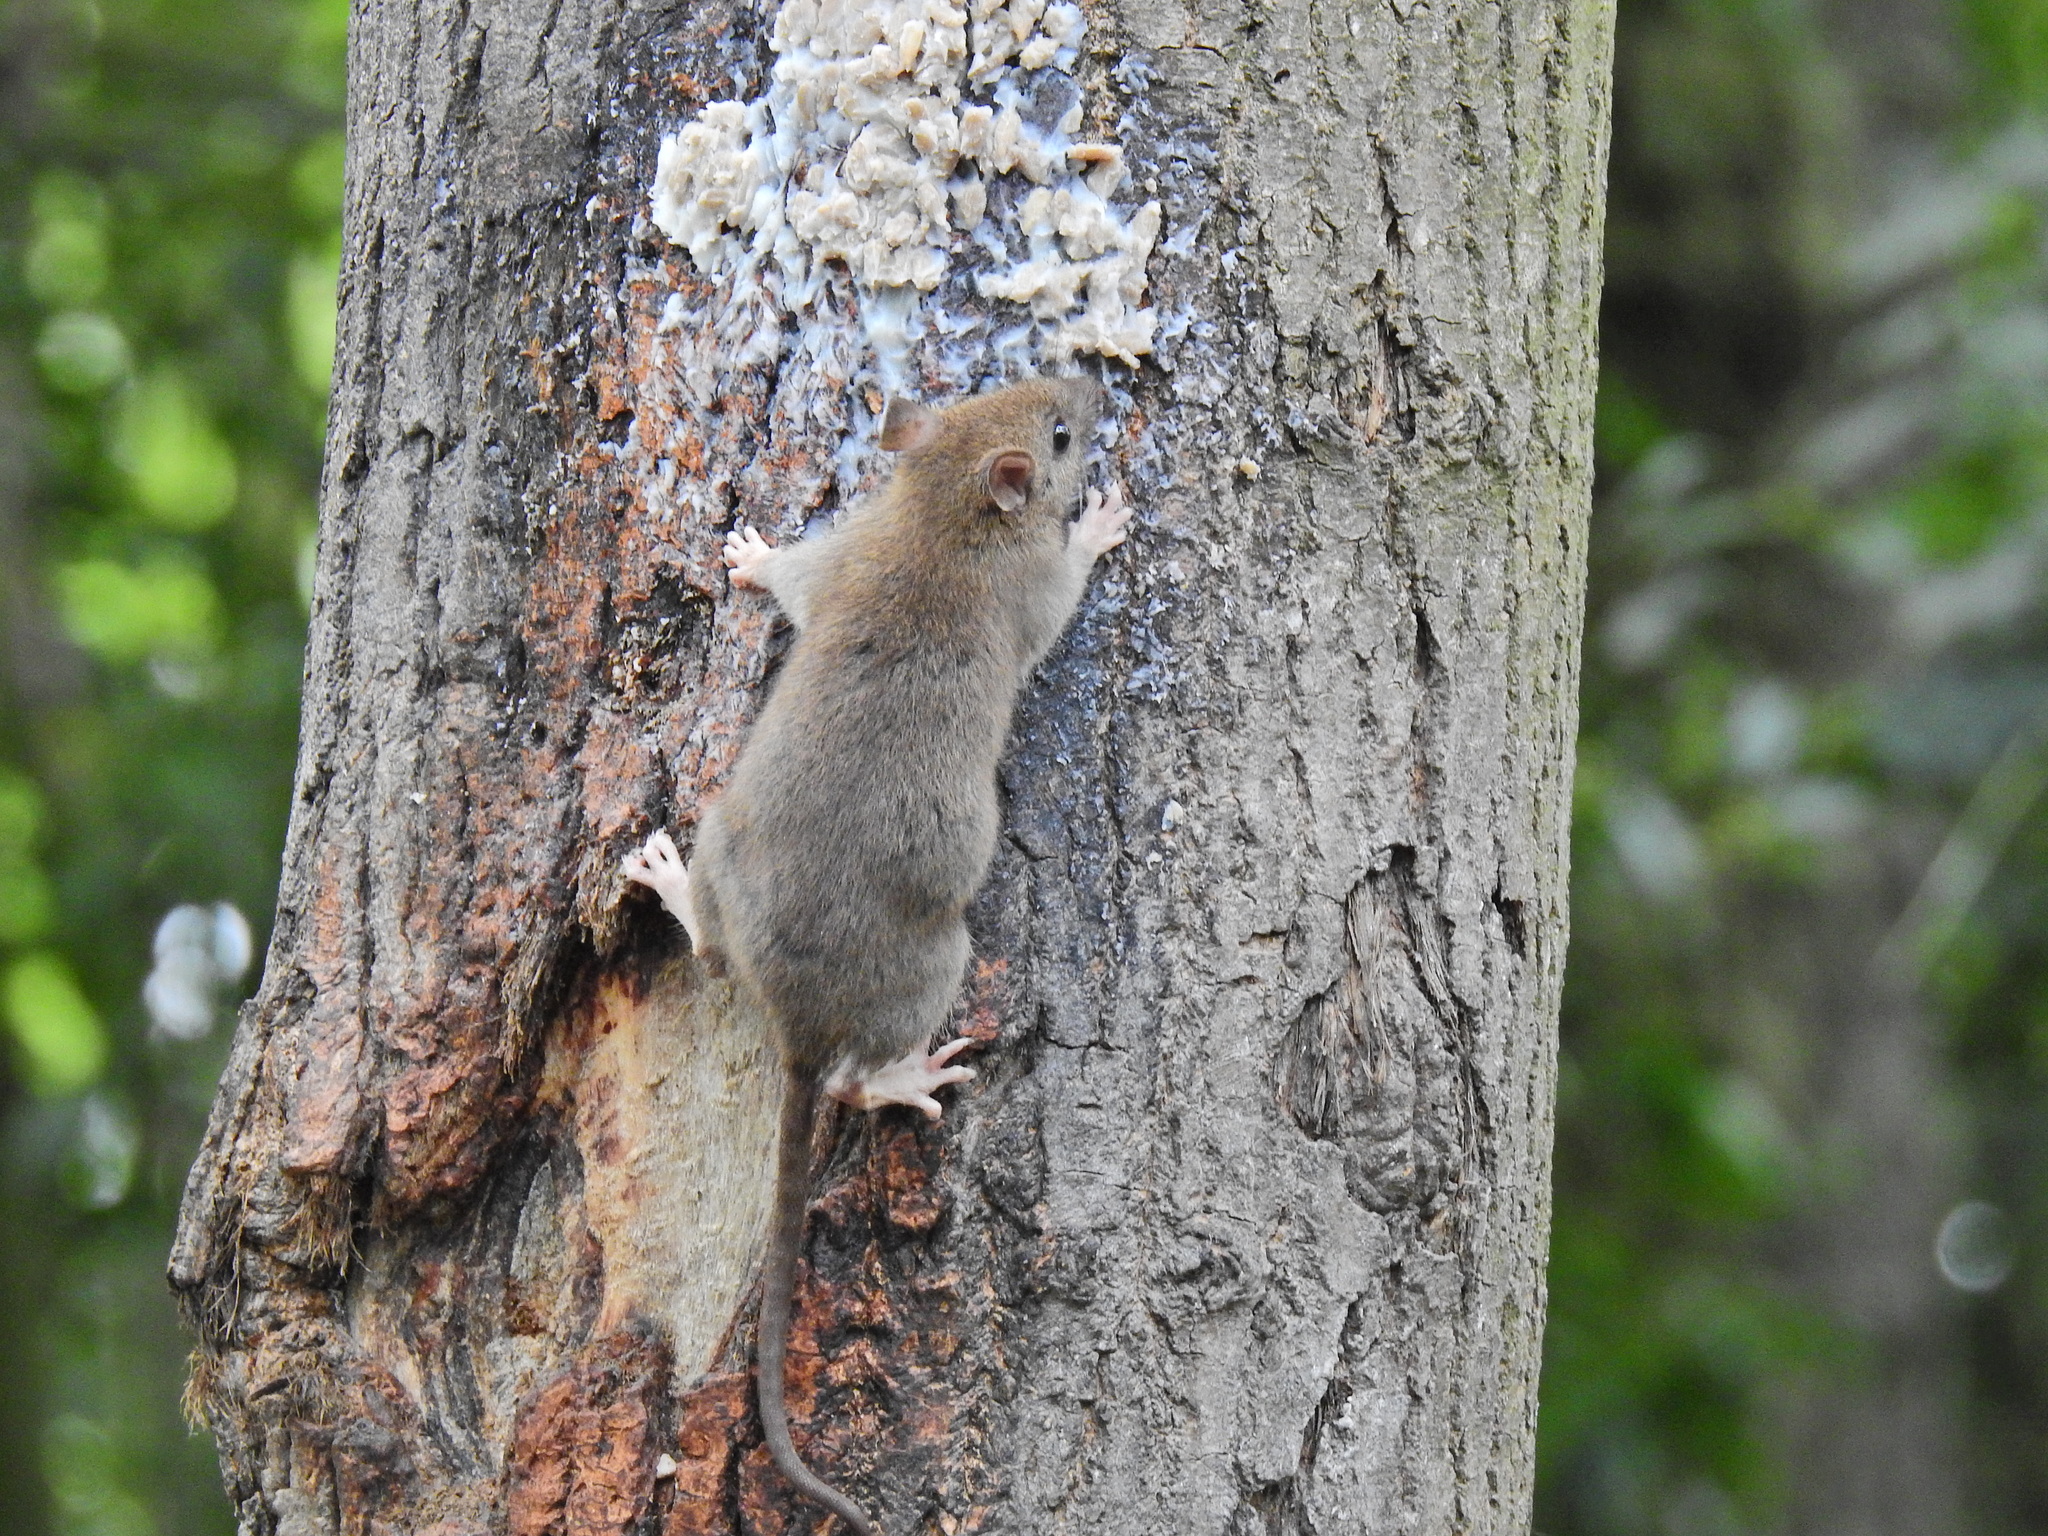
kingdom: Animalia
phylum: Chordata
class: Mammalia
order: Rodentia
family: Muridae
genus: Rattus
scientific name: Rattus norvegicus
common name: Brown rat
